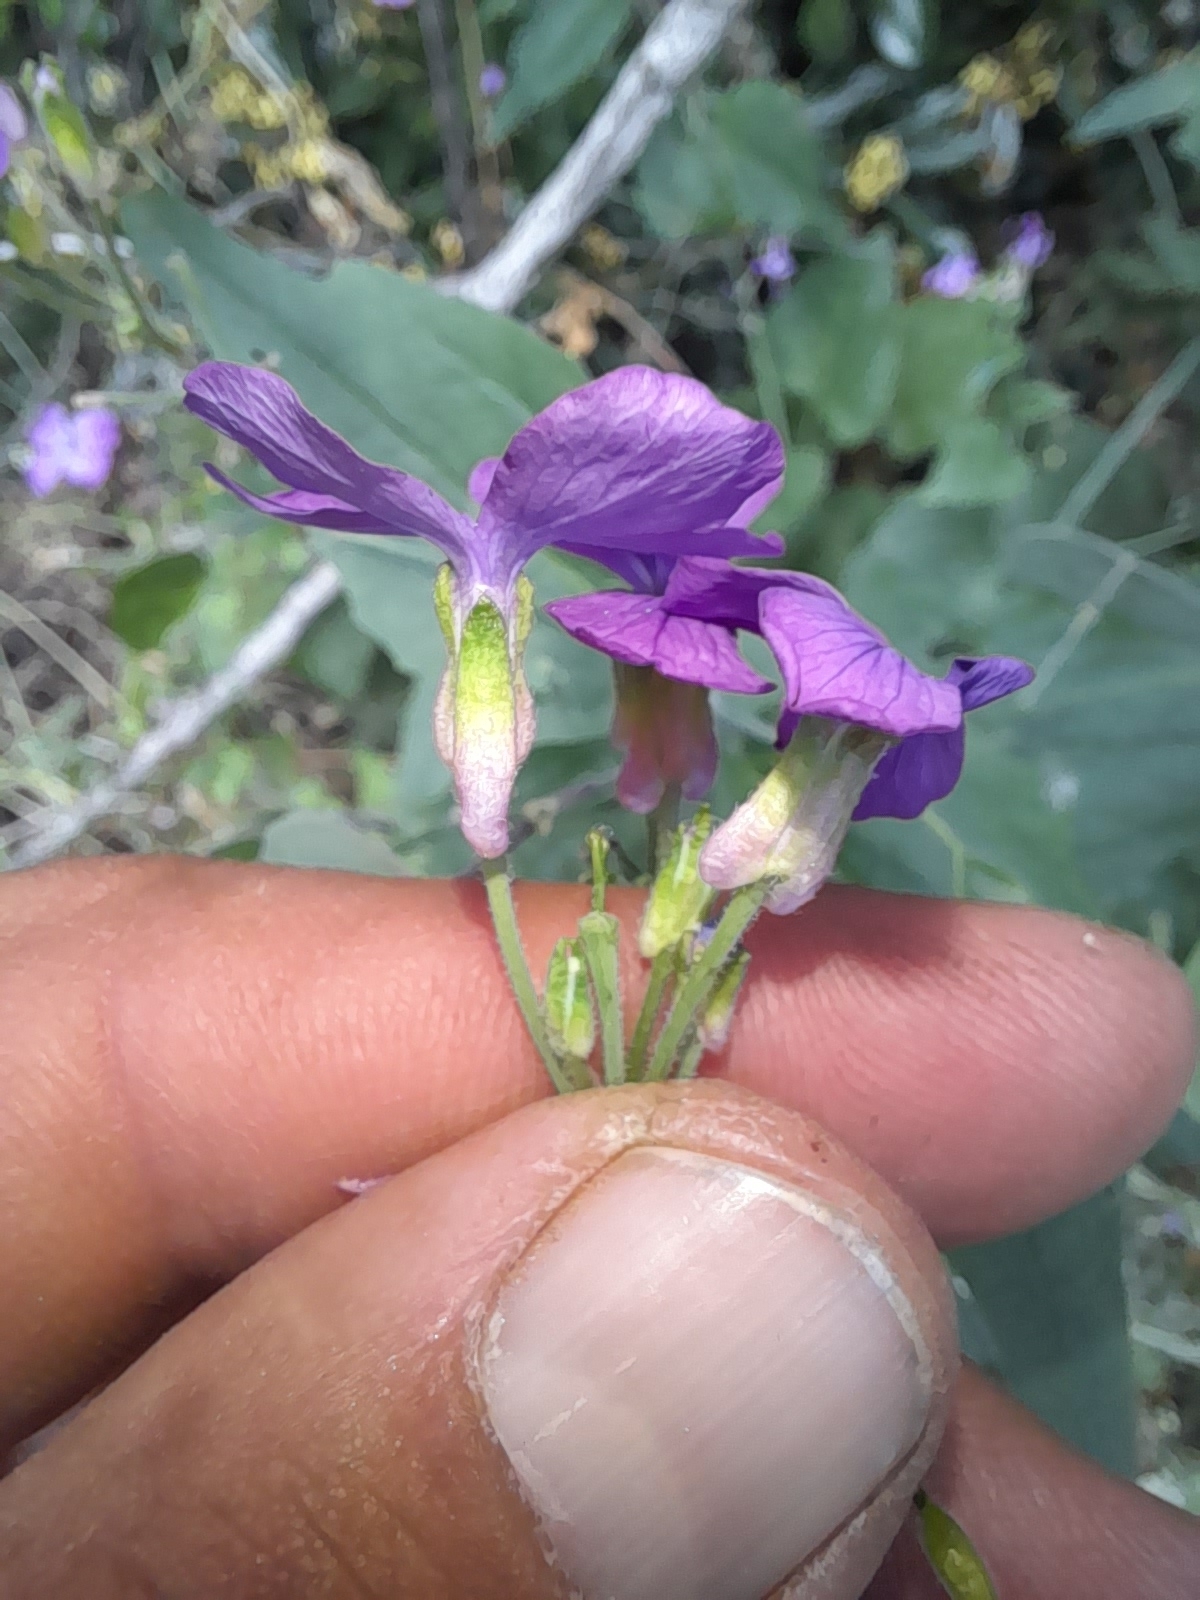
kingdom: Plantae
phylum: Tracheophyta
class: Magnoliopsida
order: Brassicales
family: Brassicaceae
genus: Lunaria
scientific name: Lunaria annua
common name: Honesty
